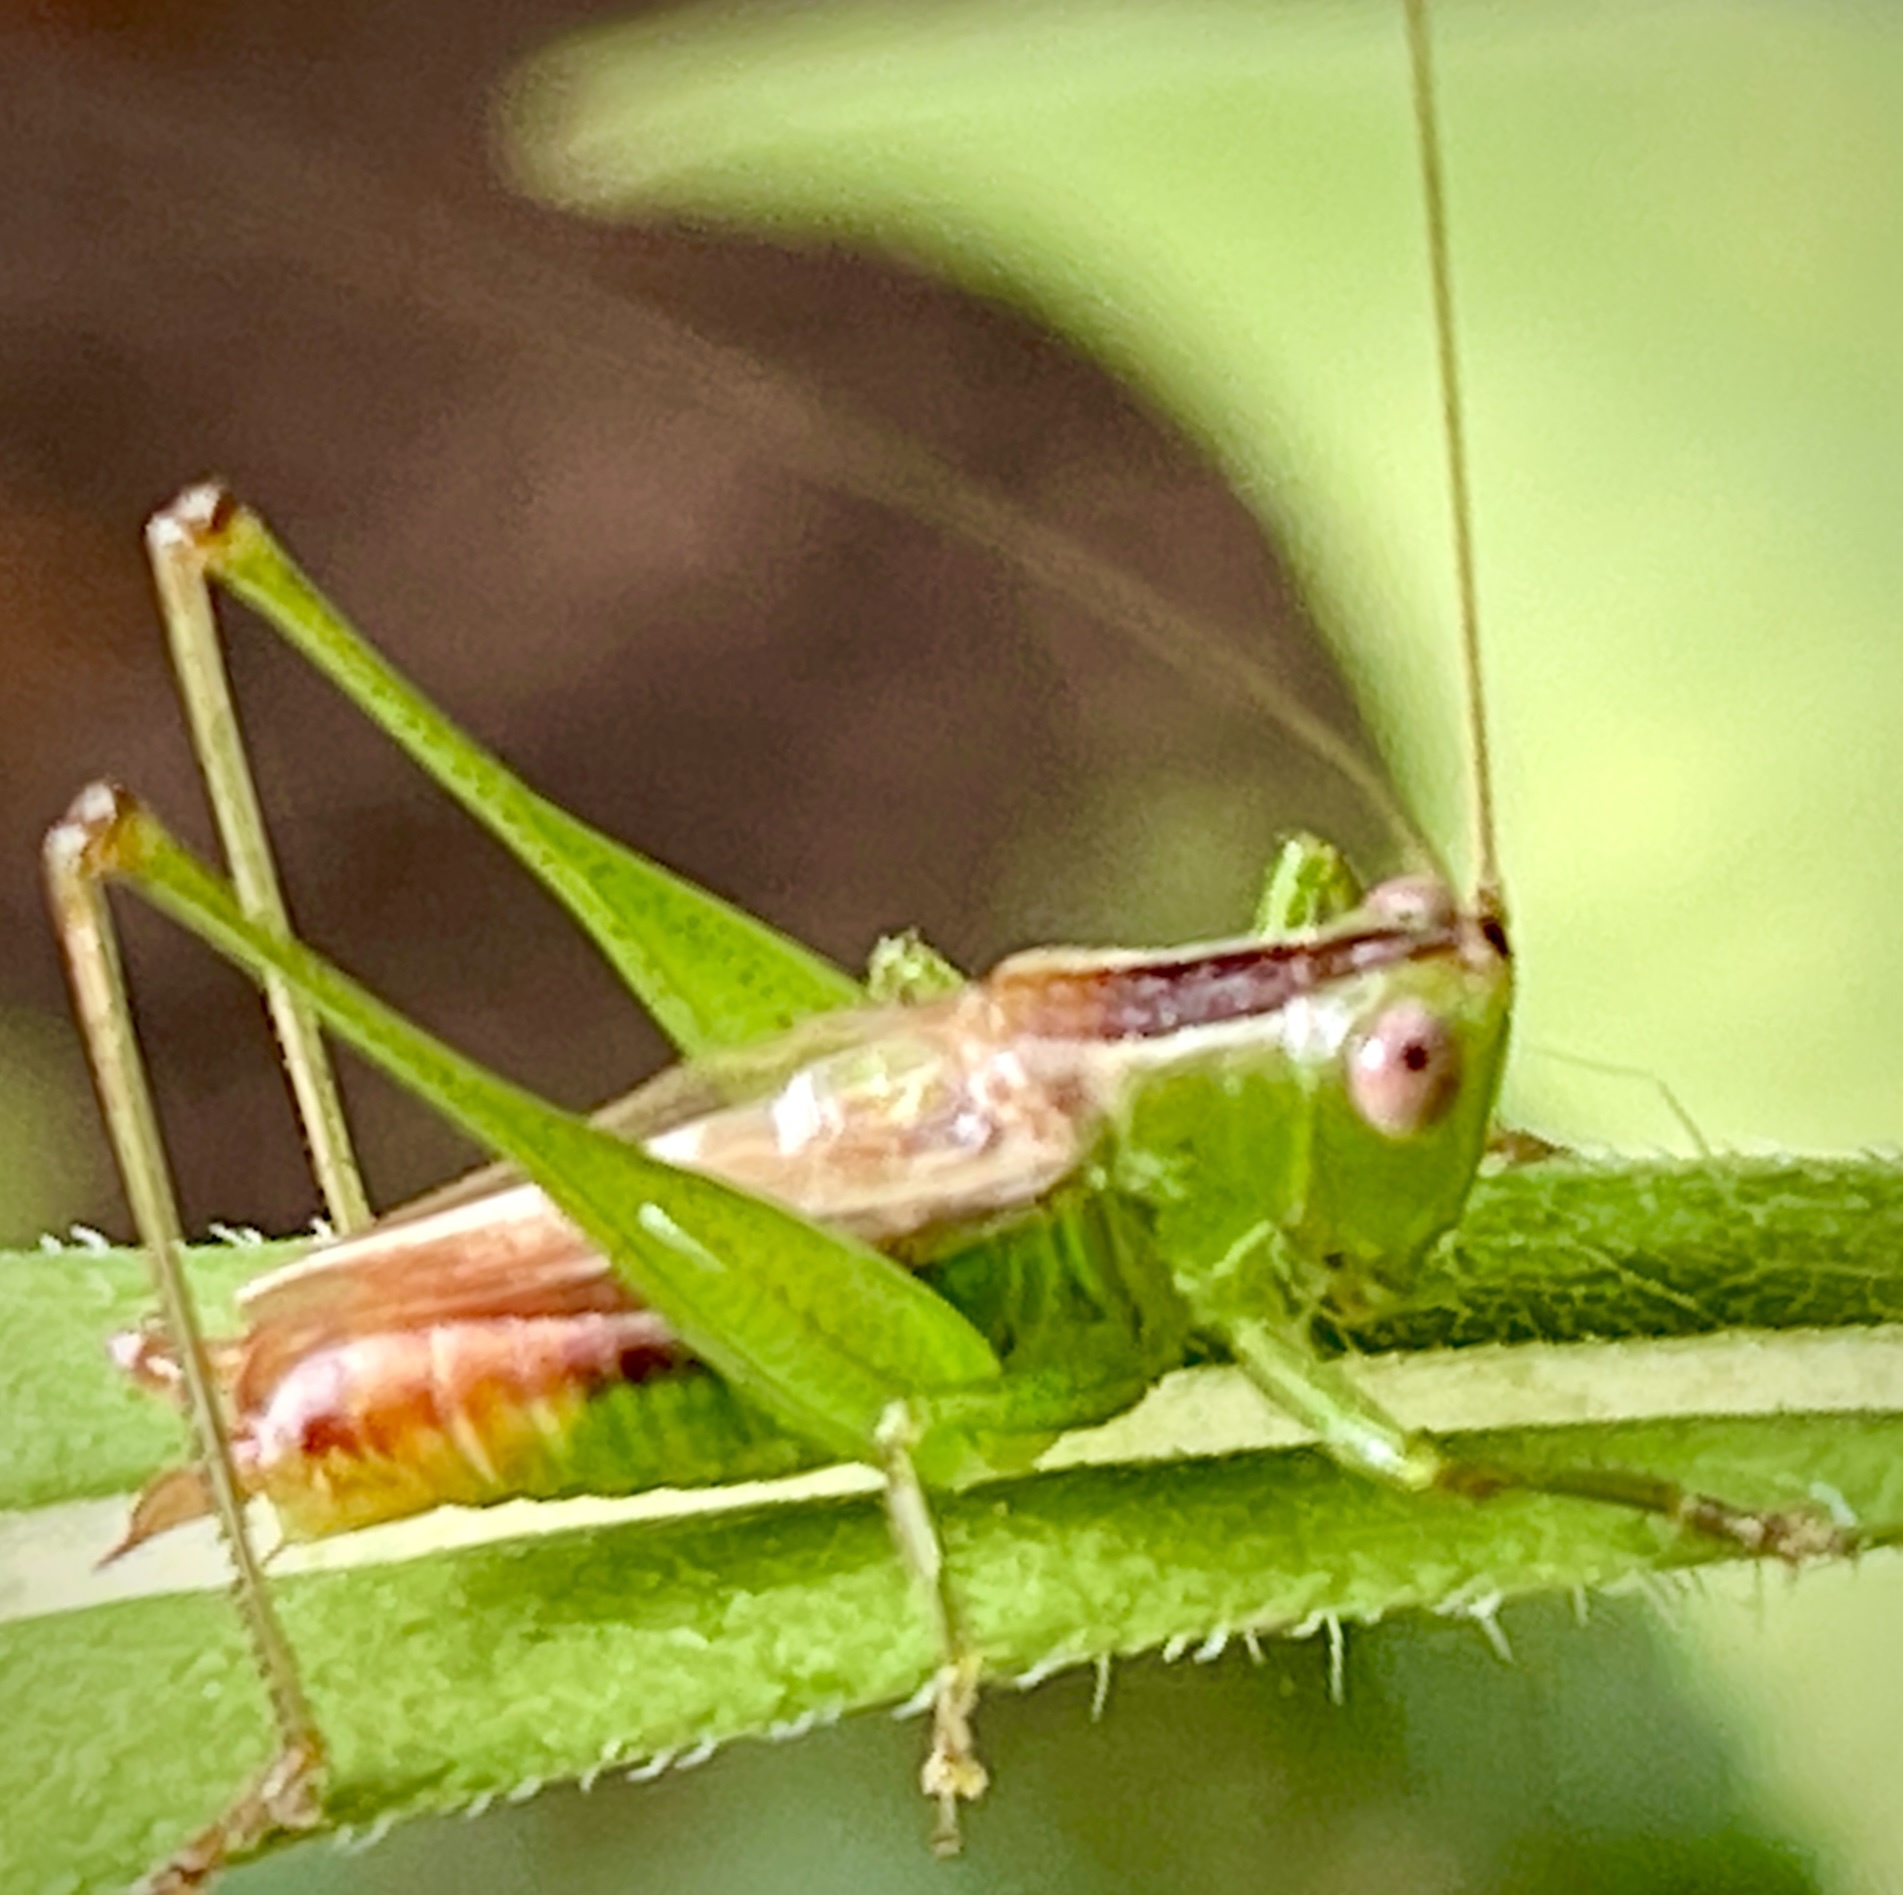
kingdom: Animalia
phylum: Arthropoda
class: Insecta
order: Orthoptera
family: Tettigoniidae
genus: Conocephalus
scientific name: Conocephalus brevipennis
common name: Short-winged meadow katydid
